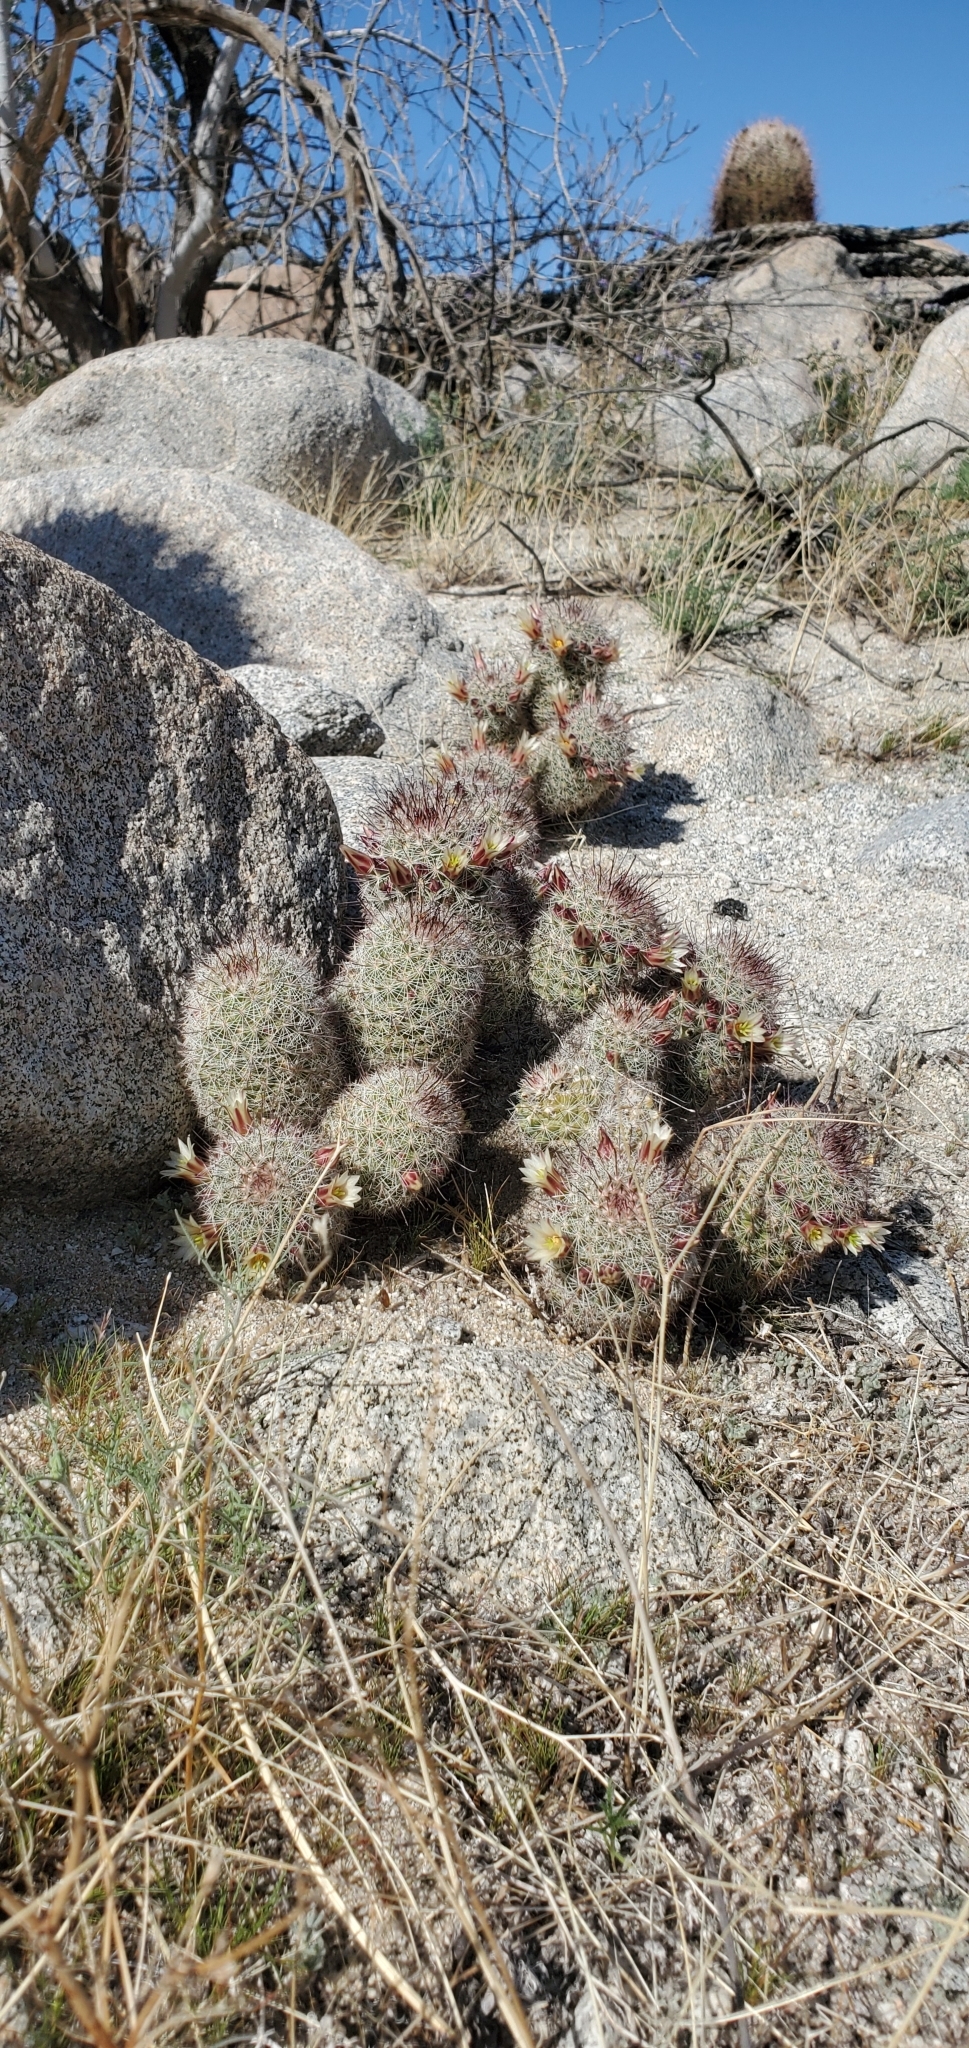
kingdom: Plantae
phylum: Tracheophyta
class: Magnoliopsida
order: Caryophyllales
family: Cactaceae
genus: Cochemiea
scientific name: Cochemiea dioica
